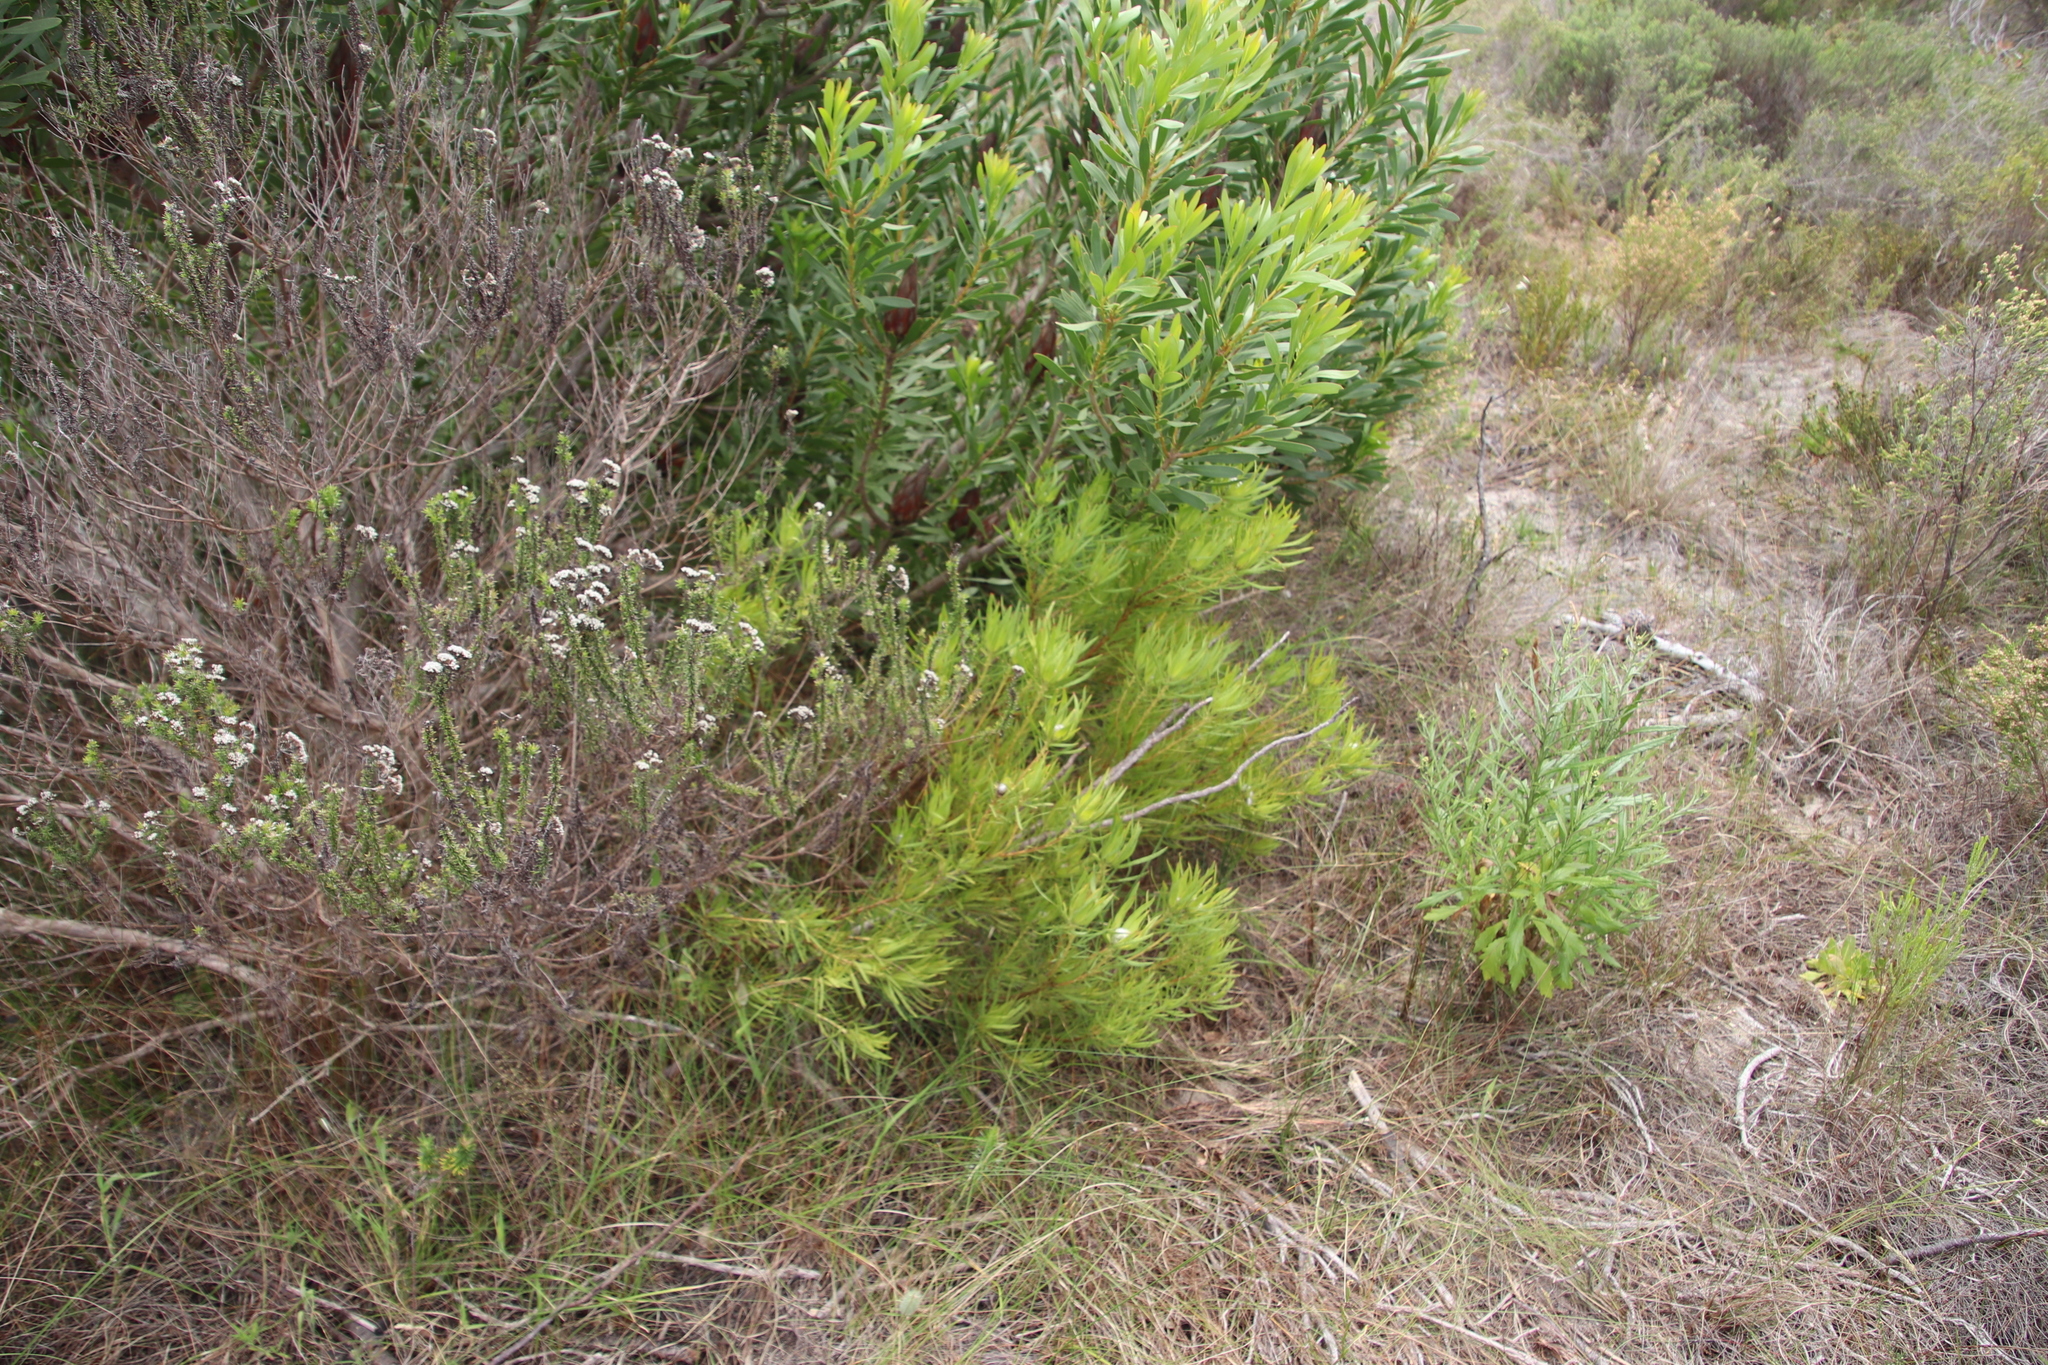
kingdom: Plantae
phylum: Tracheophyta
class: Magnoliopsida
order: Proteales
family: Proteaceae
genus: Leucadendron
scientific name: Leucadendron salignum
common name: Common sunshine conebush
